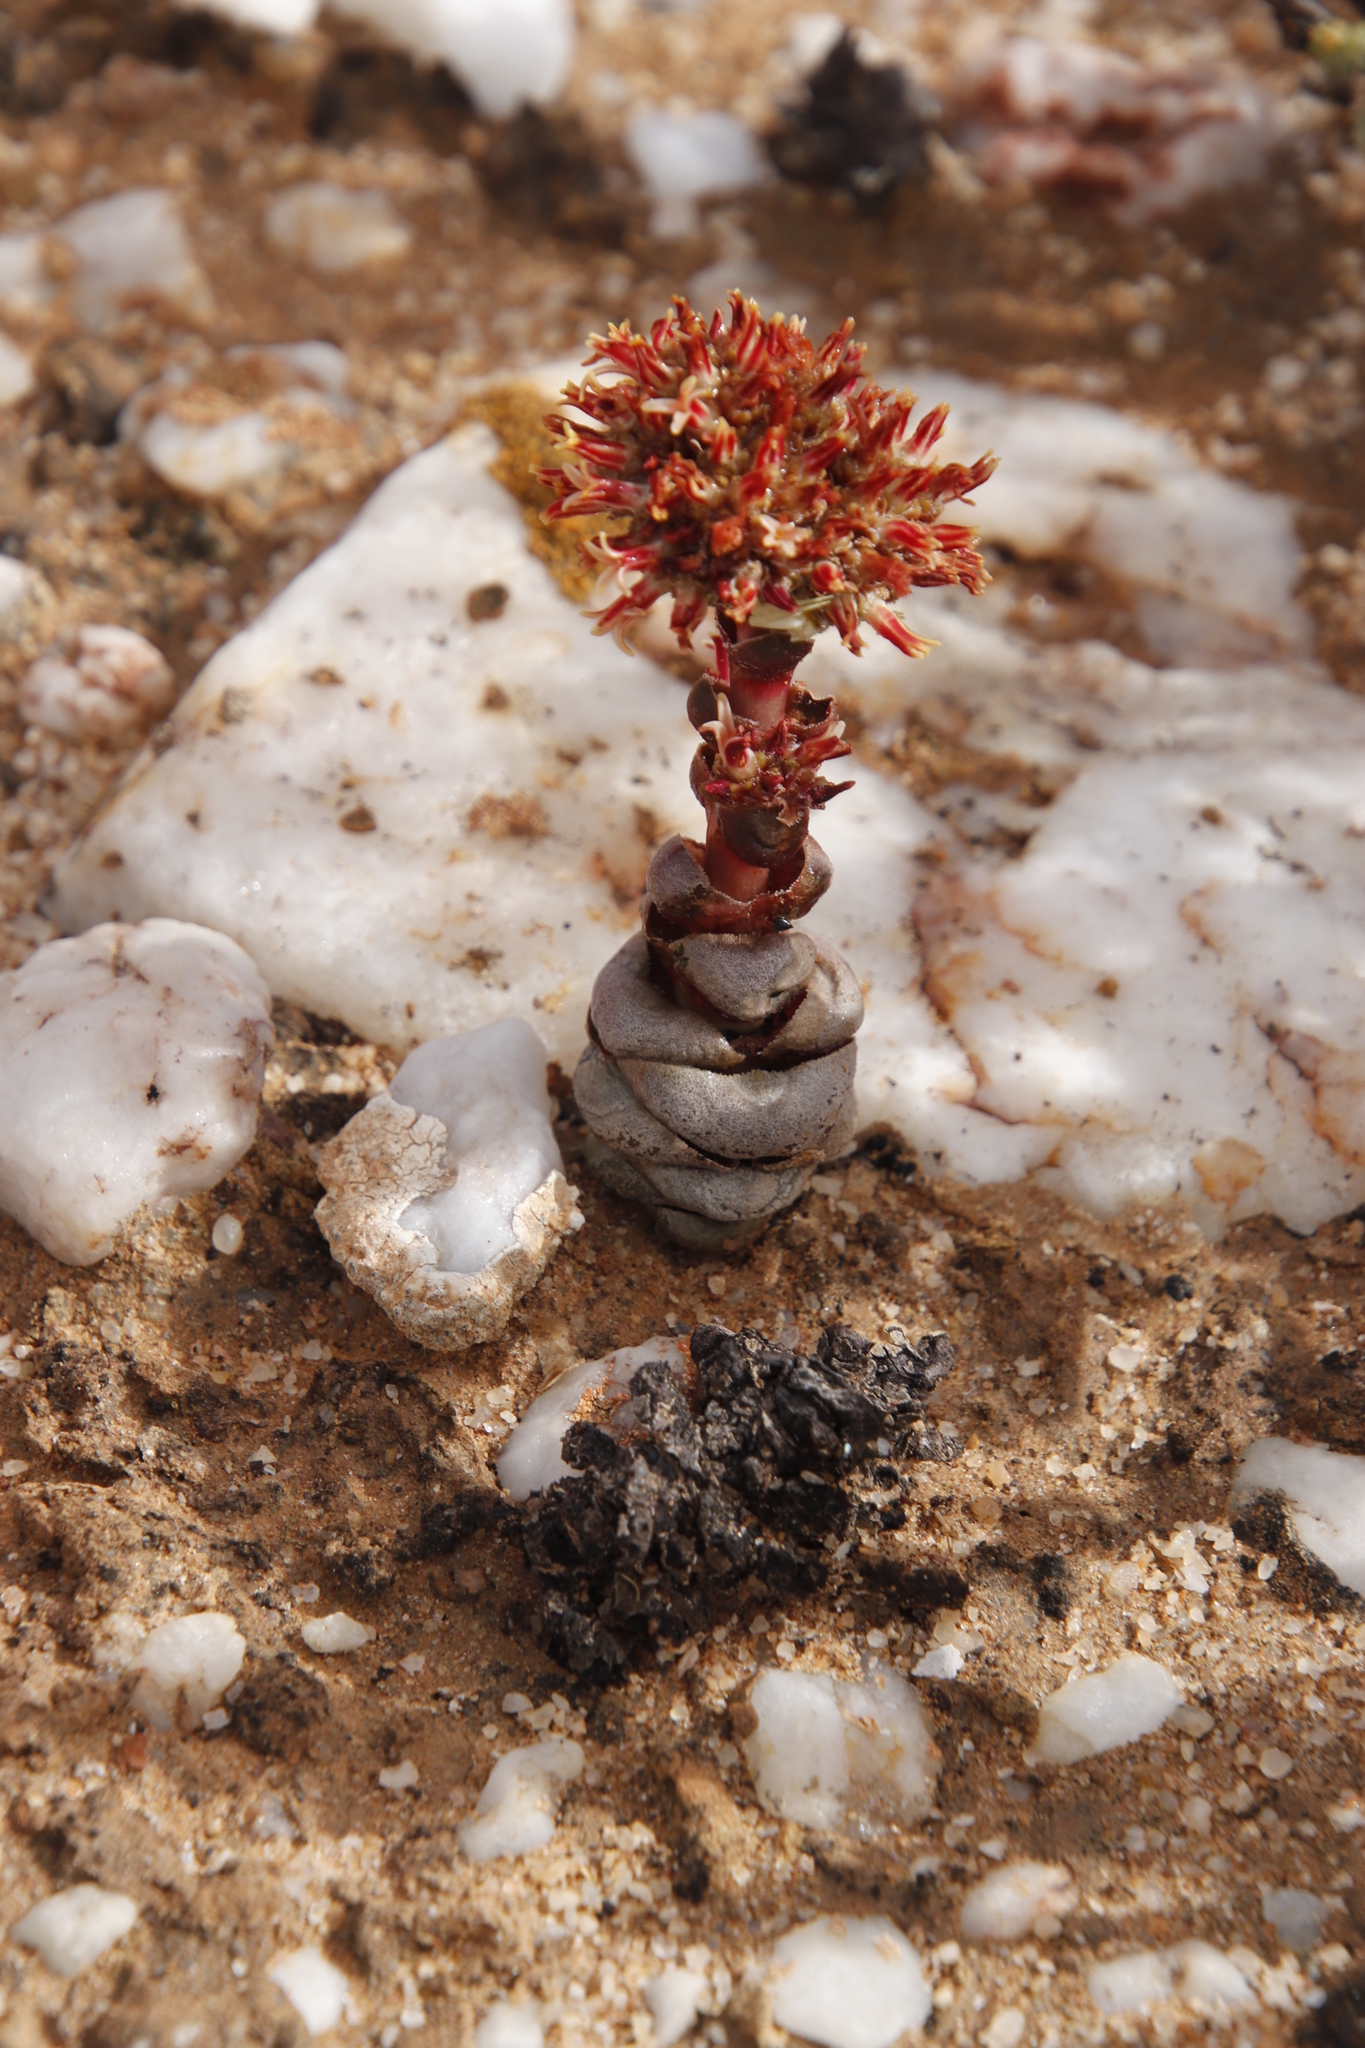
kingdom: Plantae
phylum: Tracheophyta
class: Magnoliopsida
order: Saxifragales
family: Crassulaceae
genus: Crassula
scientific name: Crassula columnaris
